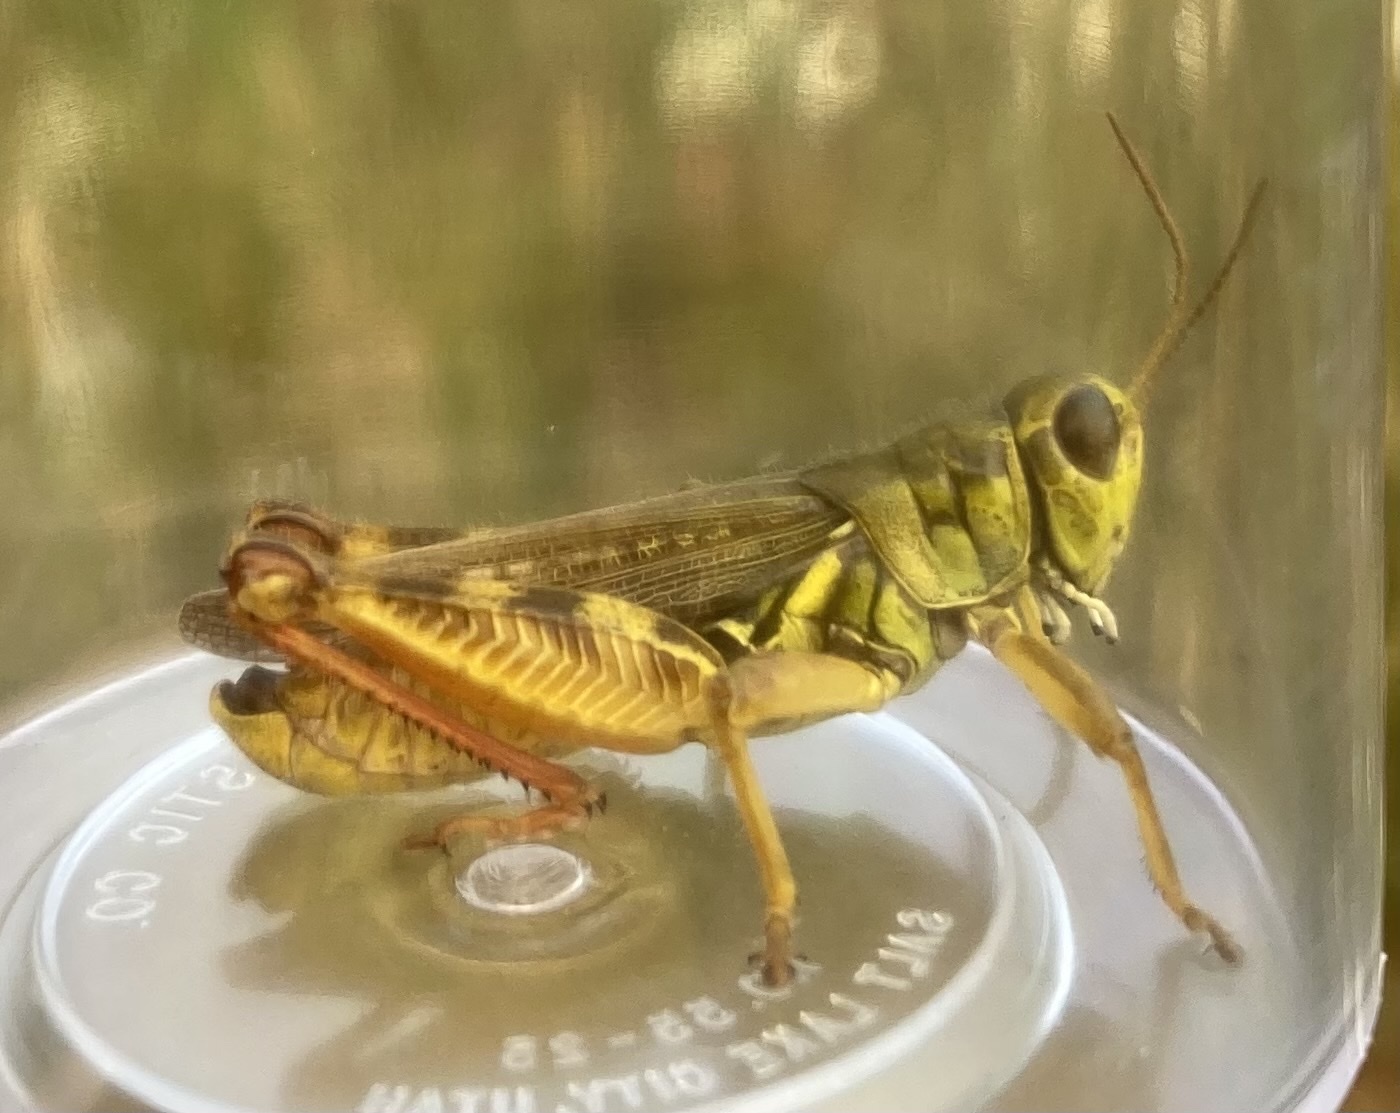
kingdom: Animalia
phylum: Arthropoda
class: Insecta
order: Orthoptera
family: Acrididae
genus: Melanoplus
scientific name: Melanoplus femurrubrum
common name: Red-legged grasshopper
